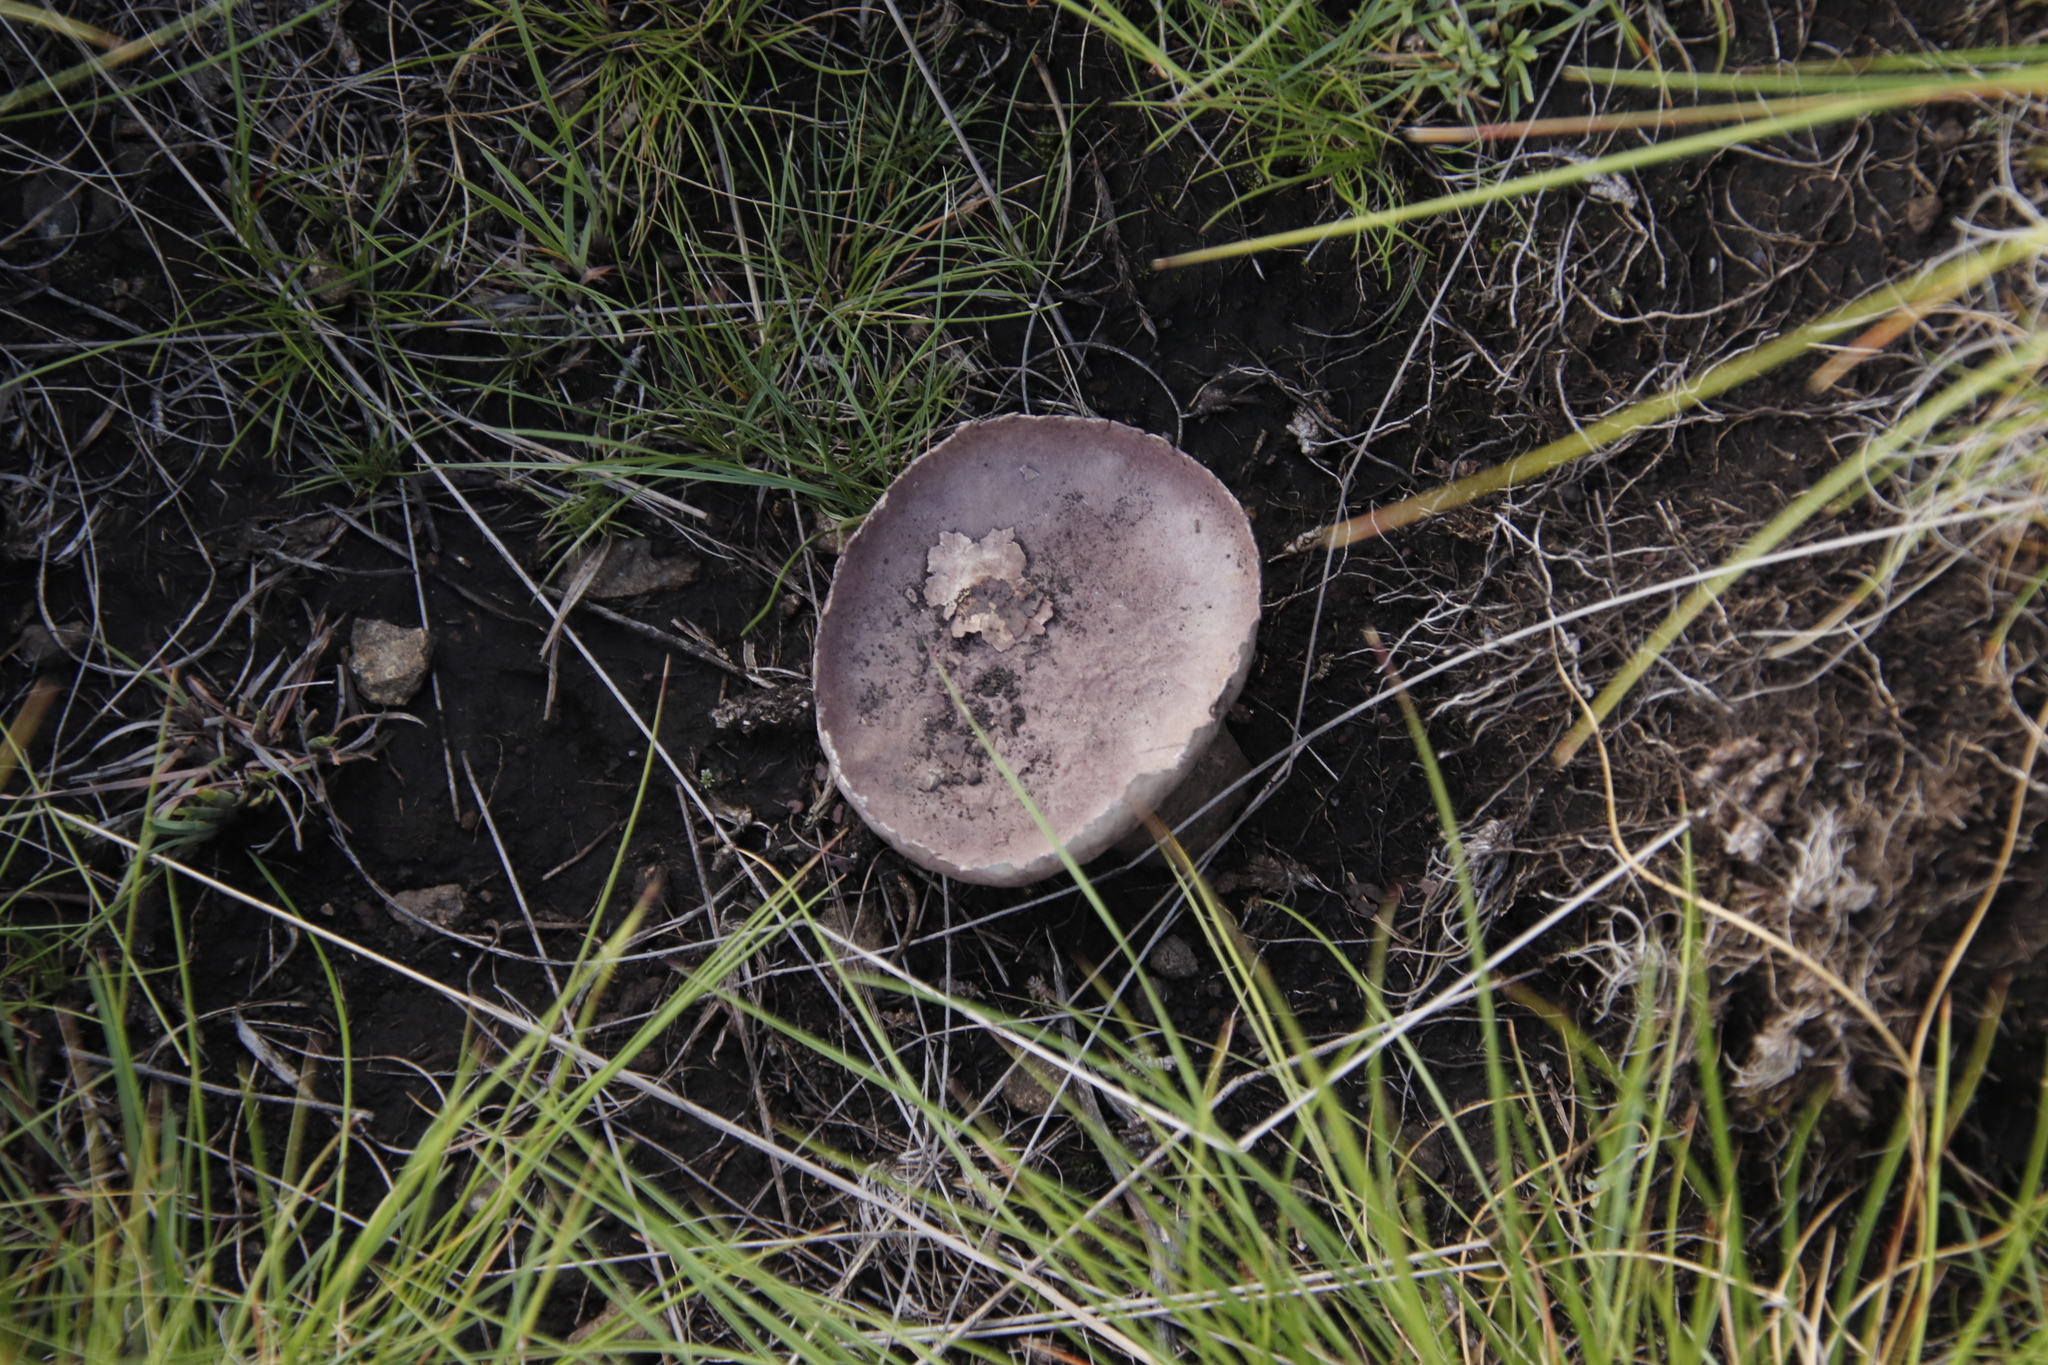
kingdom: Fungi
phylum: Basidiomycota
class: Agaricomycetes
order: Agaricales
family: Lycoperdaceae
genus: Calvatia
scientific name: Calvatia cyathiformis
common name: Purple-spored puffball
